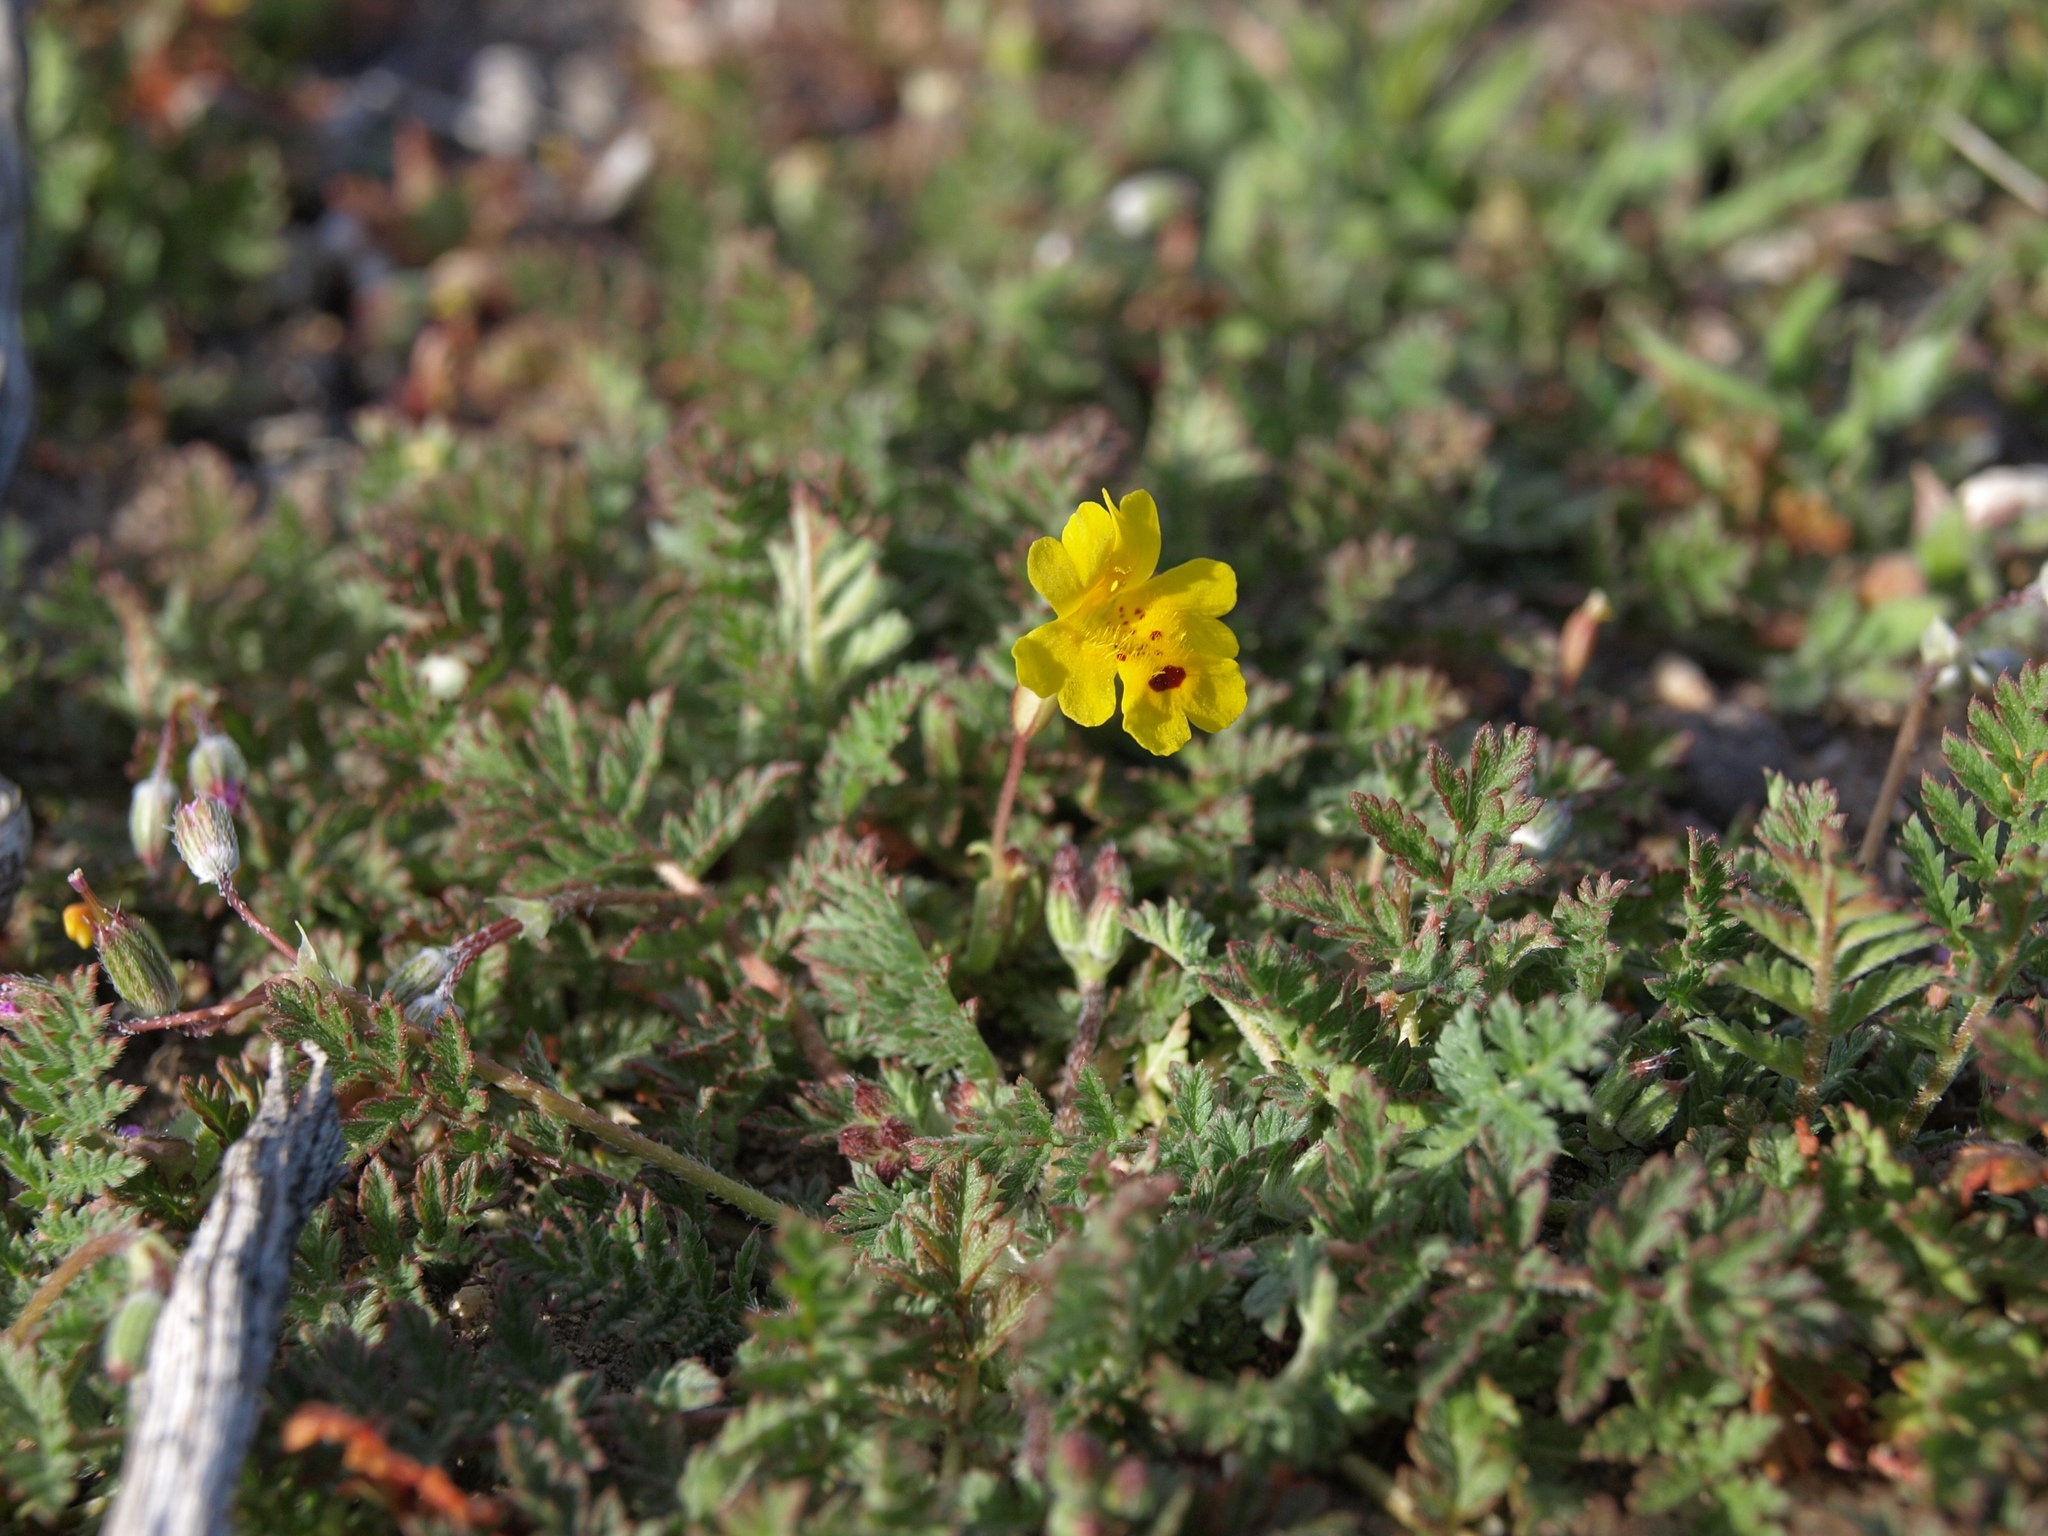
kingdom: Plantae
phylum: Tracheophyta
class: Magnoliopsida
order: Lamiales
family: Phrymaceae
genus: Erythranthe
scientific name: Erythranthe carsonensis
